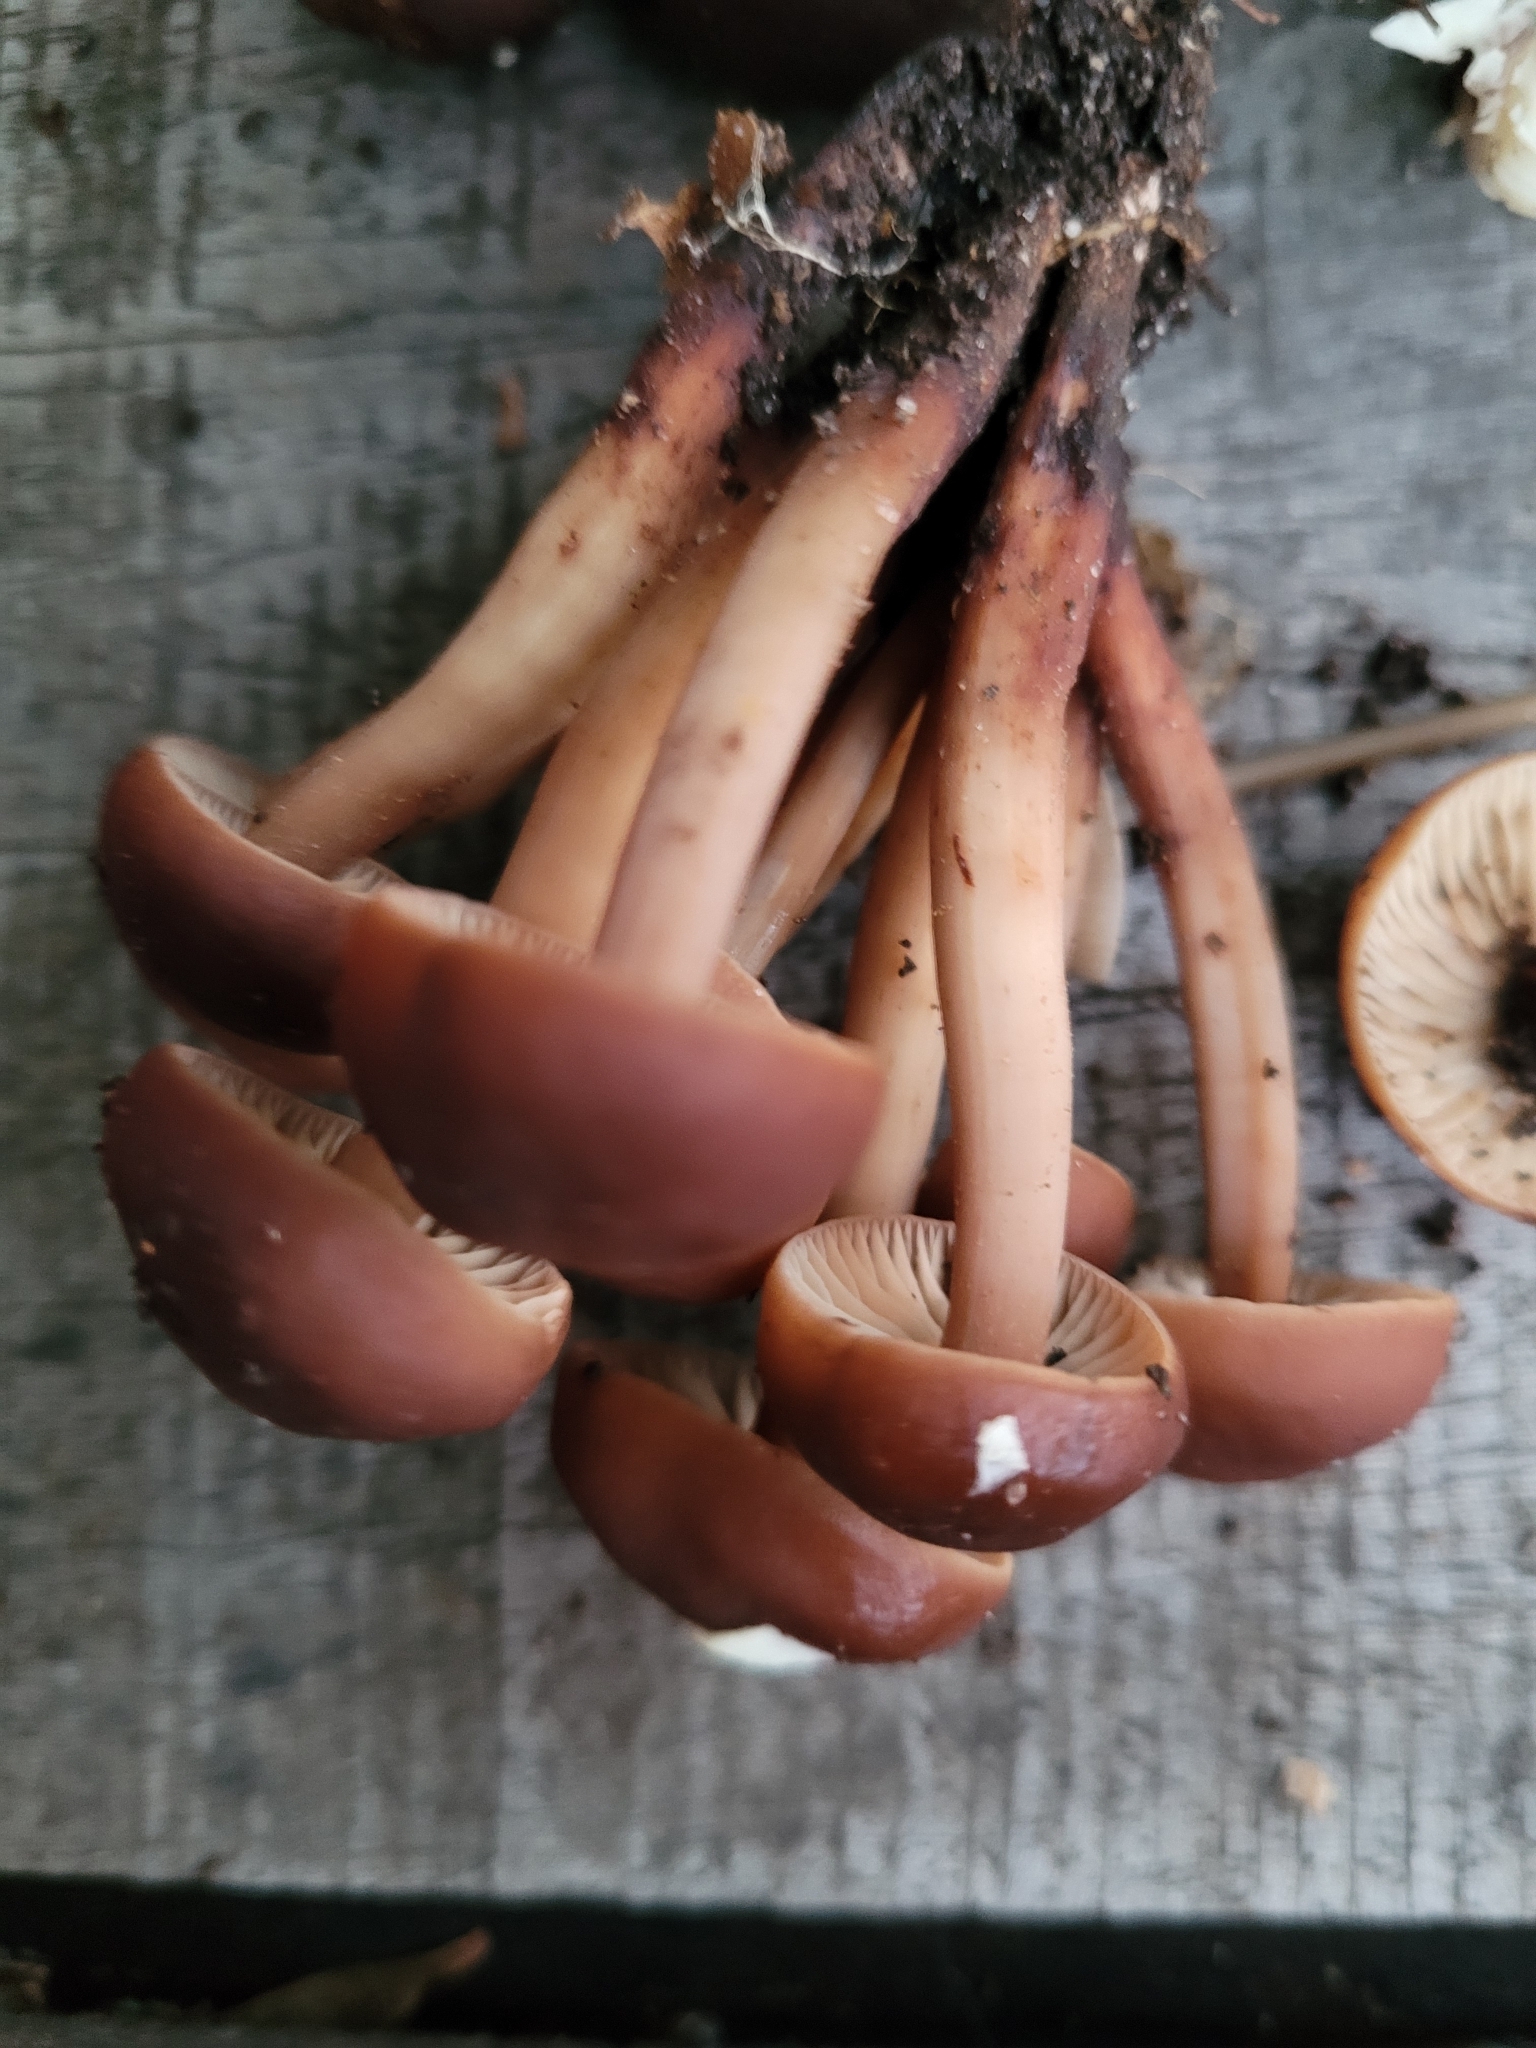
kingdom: Fungi
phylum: Basidiomycota
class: Agaricomycetes
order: Agaricales
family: Omphalotaceae
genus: Gymnopus
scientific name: Gymnopus fusipes
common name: Spindle shank
